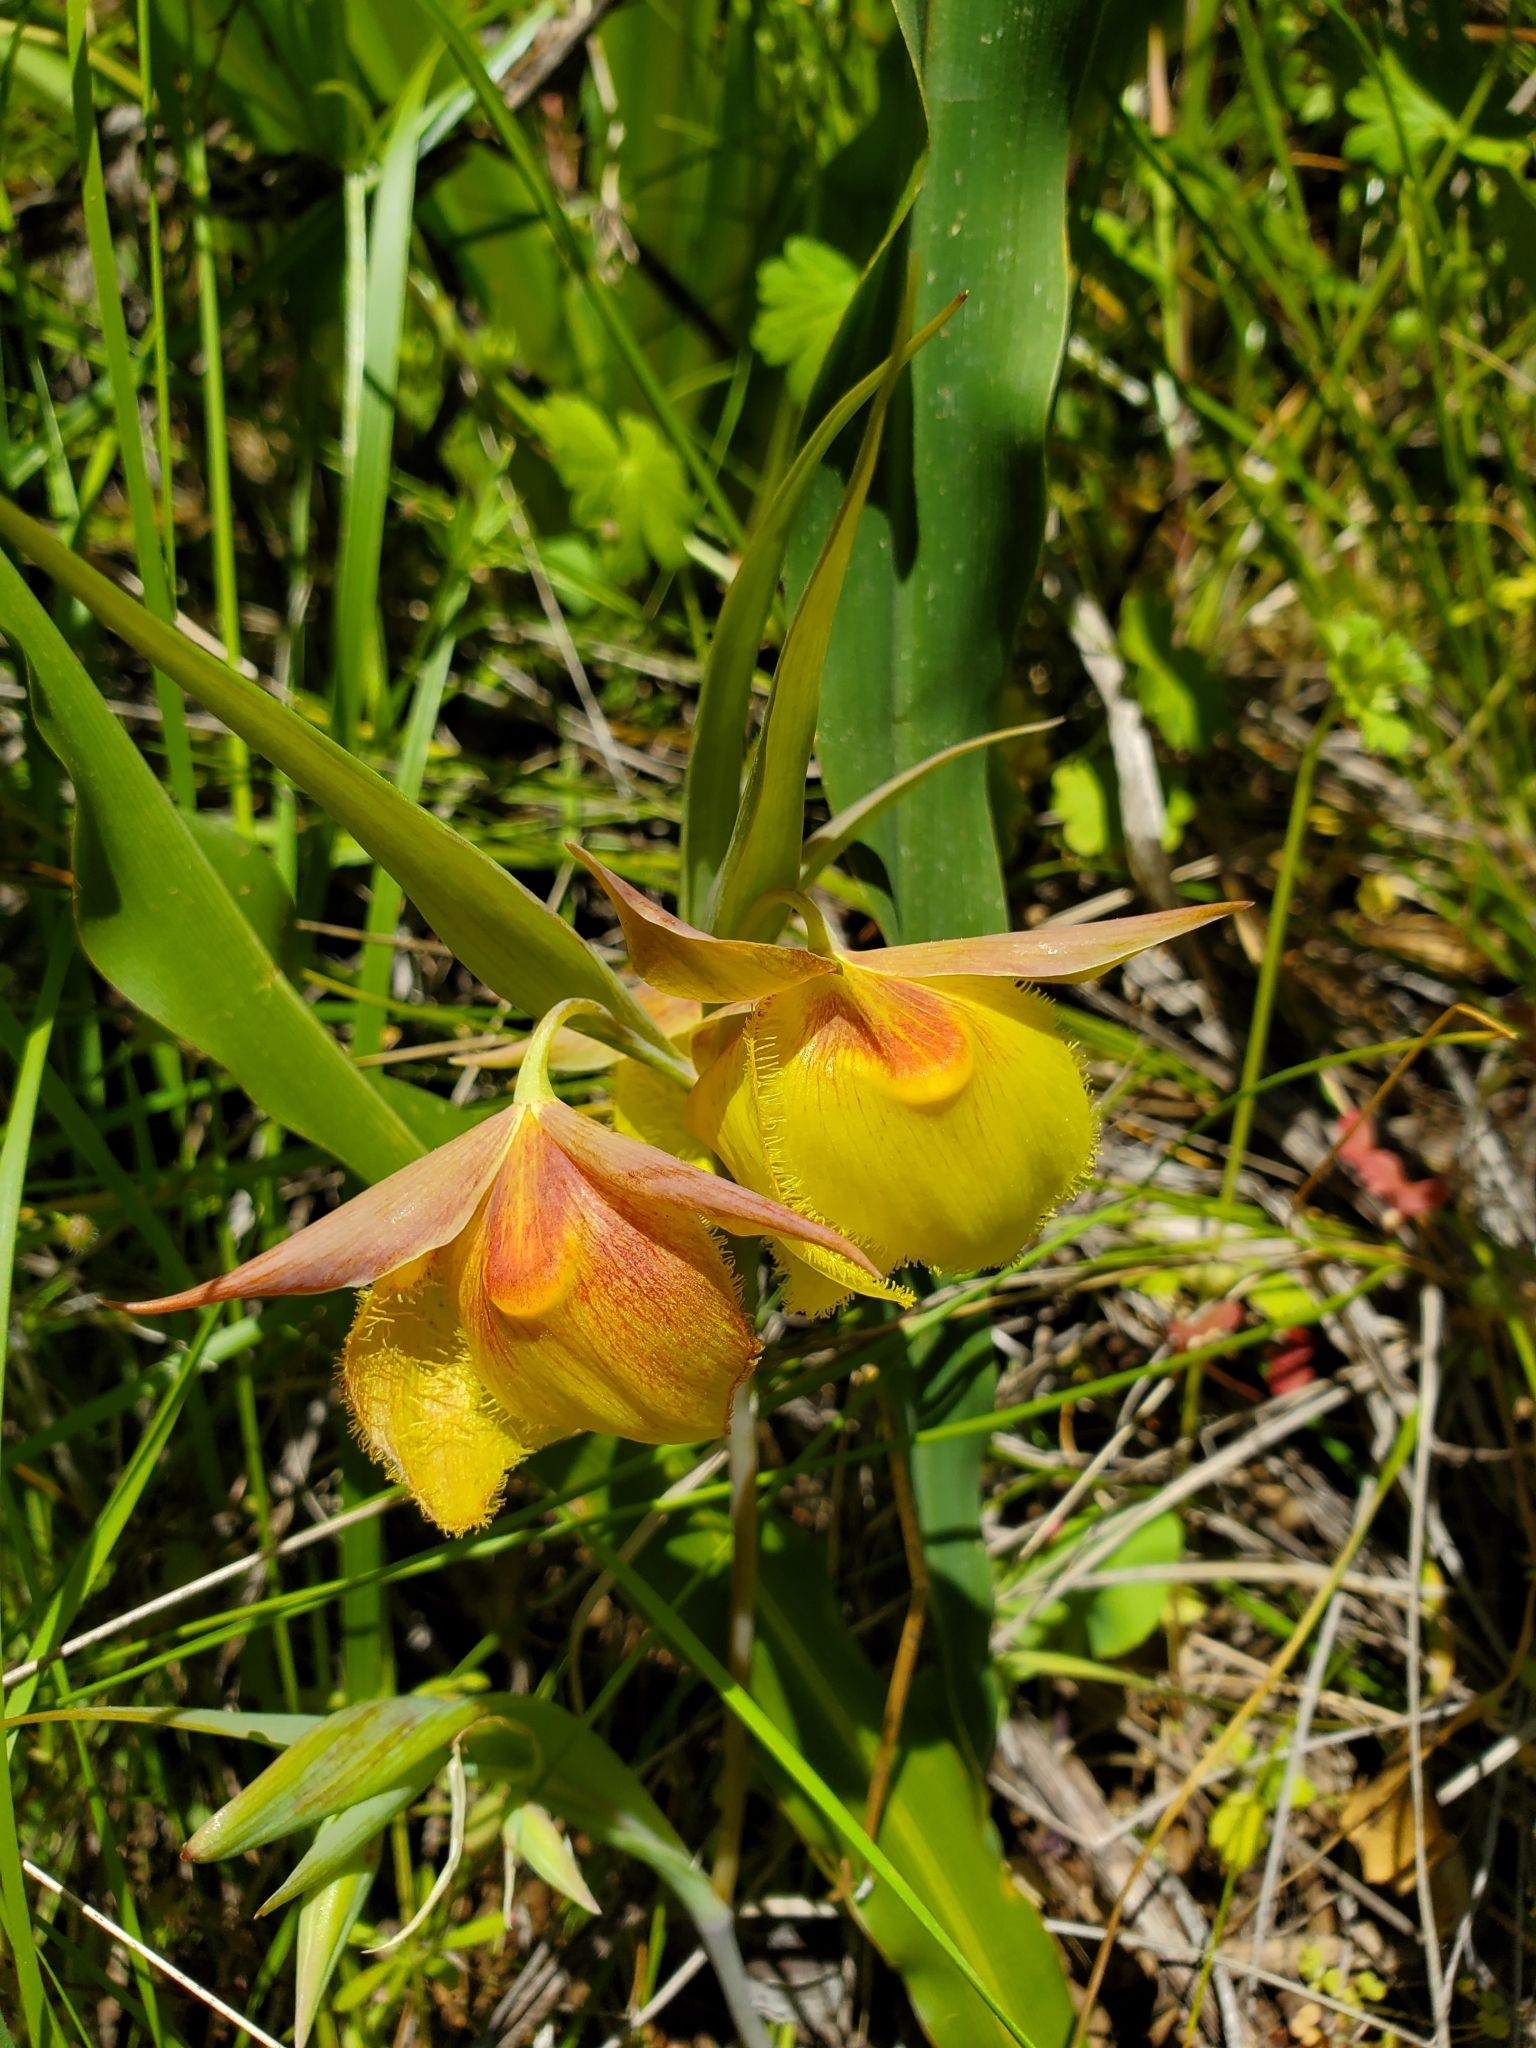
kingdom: Plantae
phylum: Tracheophyta
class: Liliopsida
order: Liliales
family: Liliaceae
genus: Calochortus
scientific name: Calochortus pulchellus
